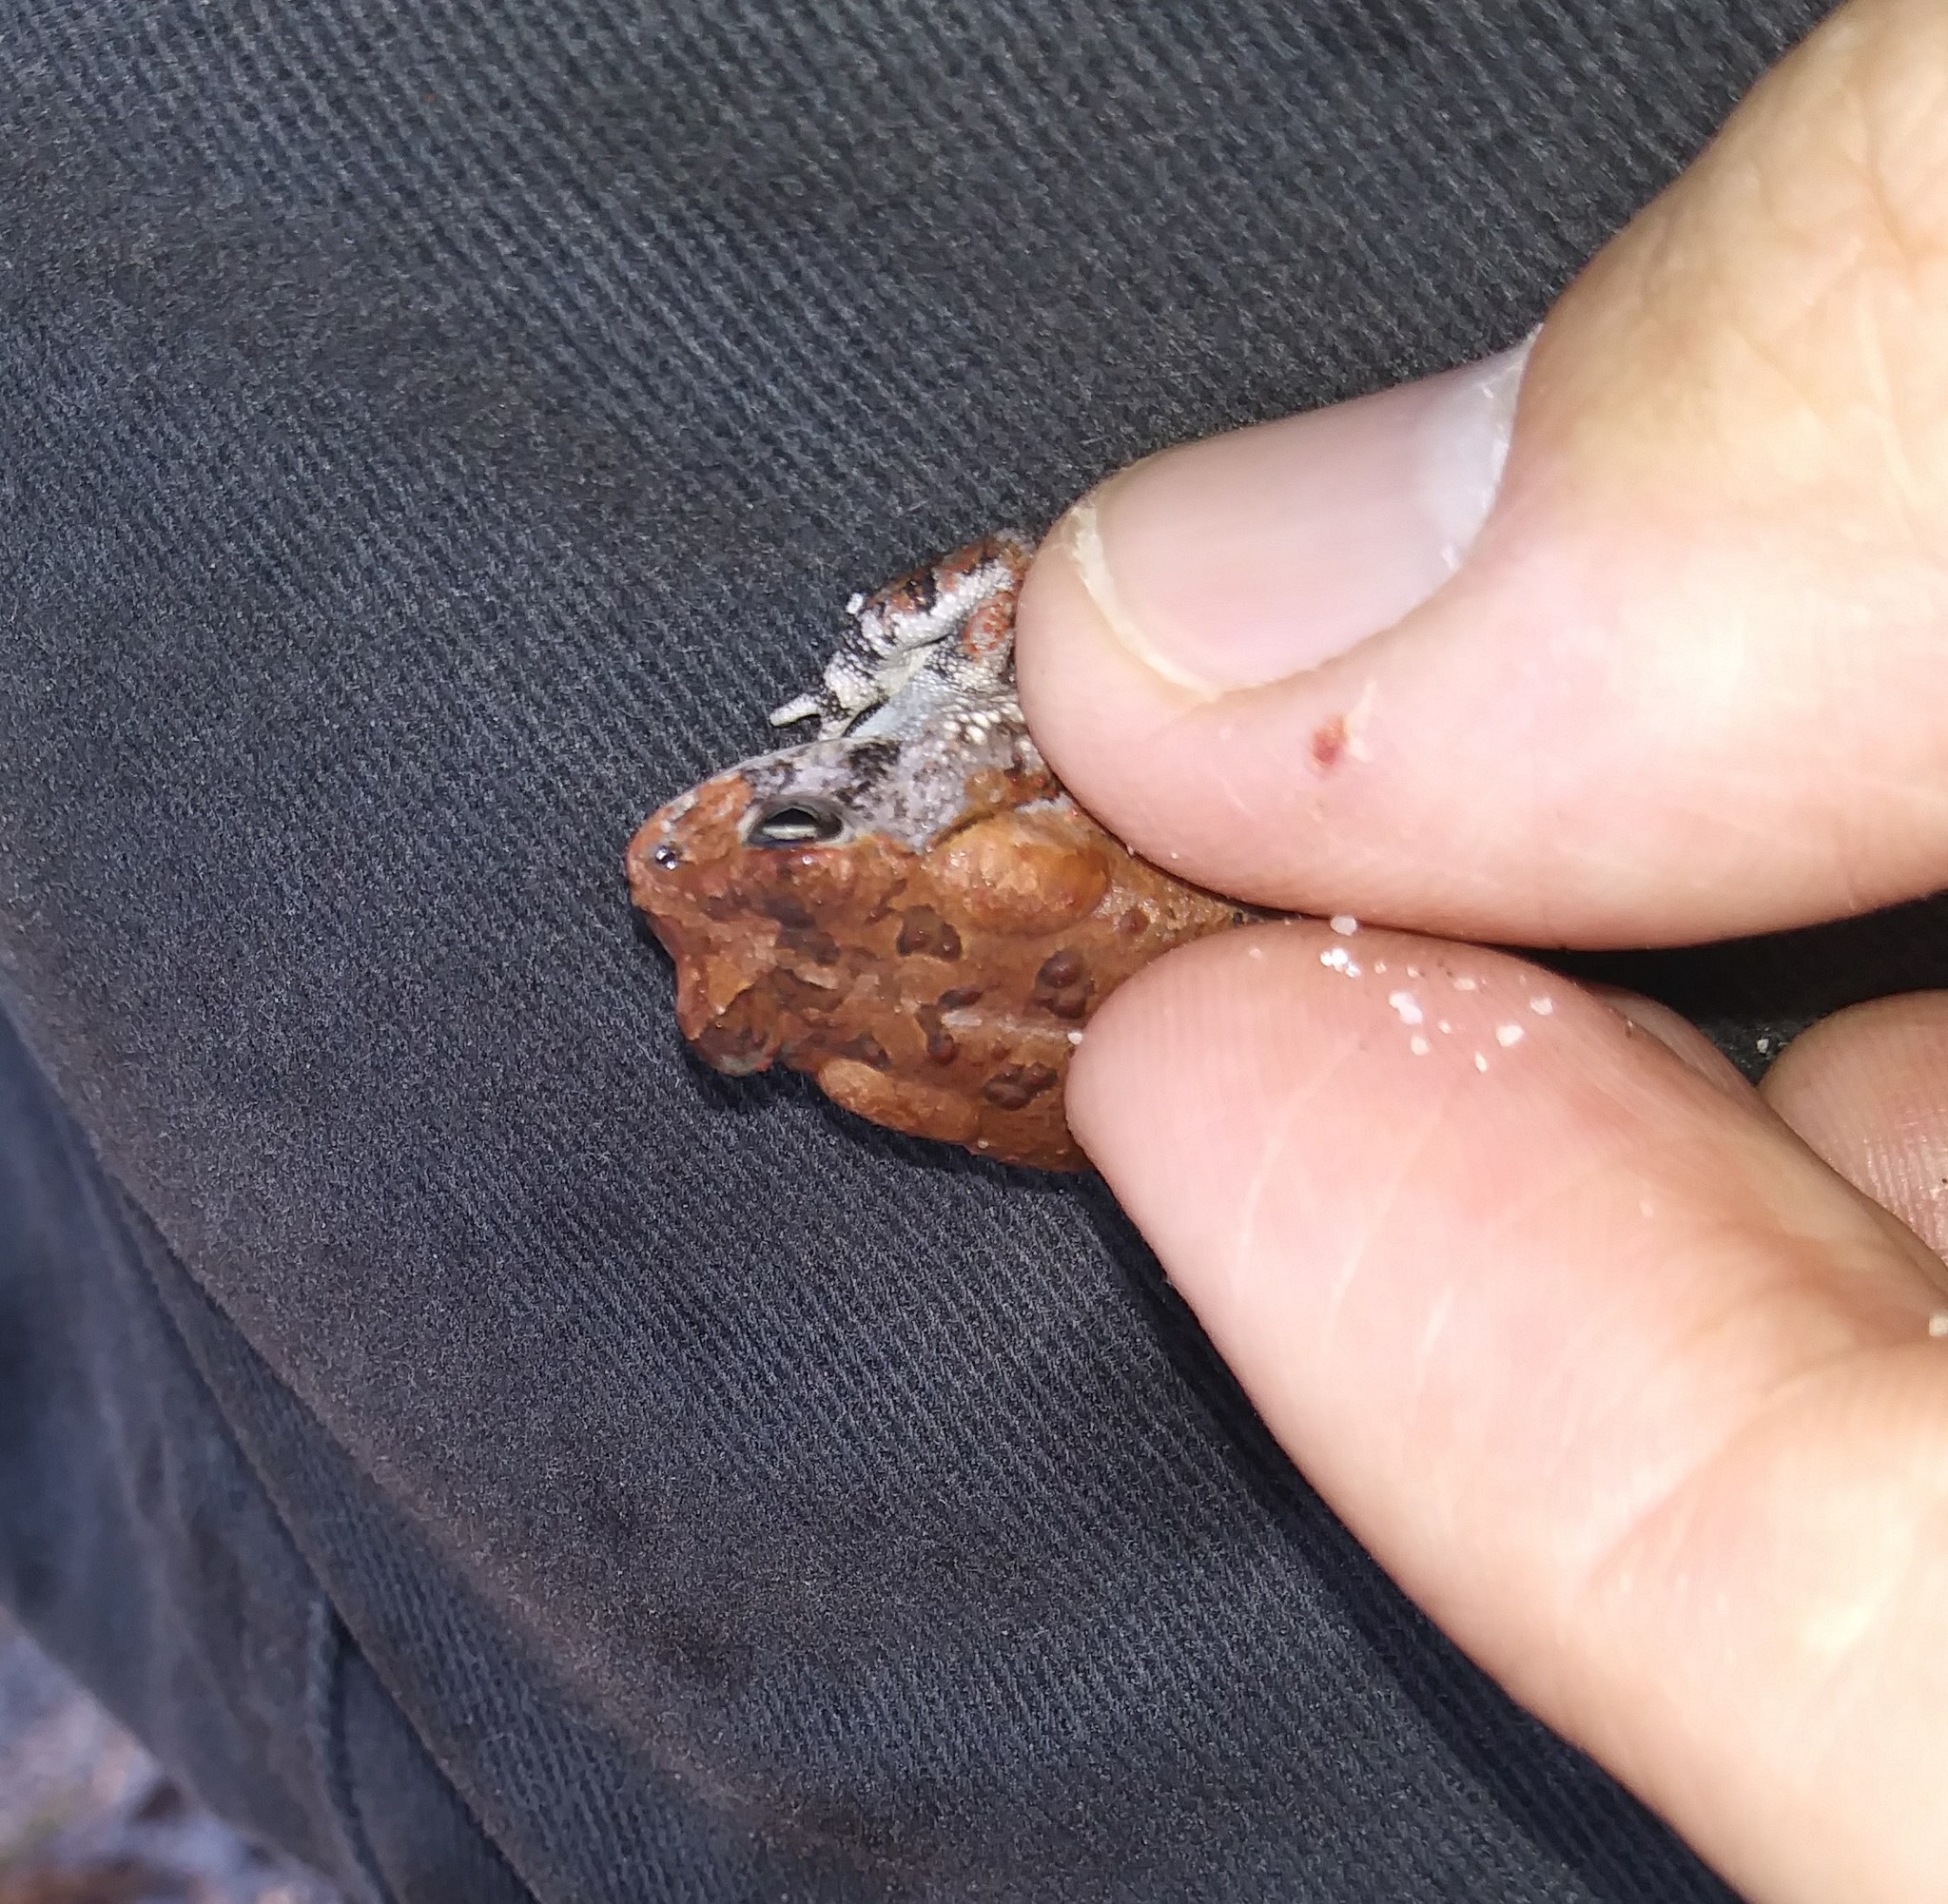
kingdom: Animalia
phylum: Chordata
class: Amphibia
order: Anura
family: Bufonidae
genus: Anaxyrus
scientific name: Anaxyrus terrestris
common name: Southern toad
